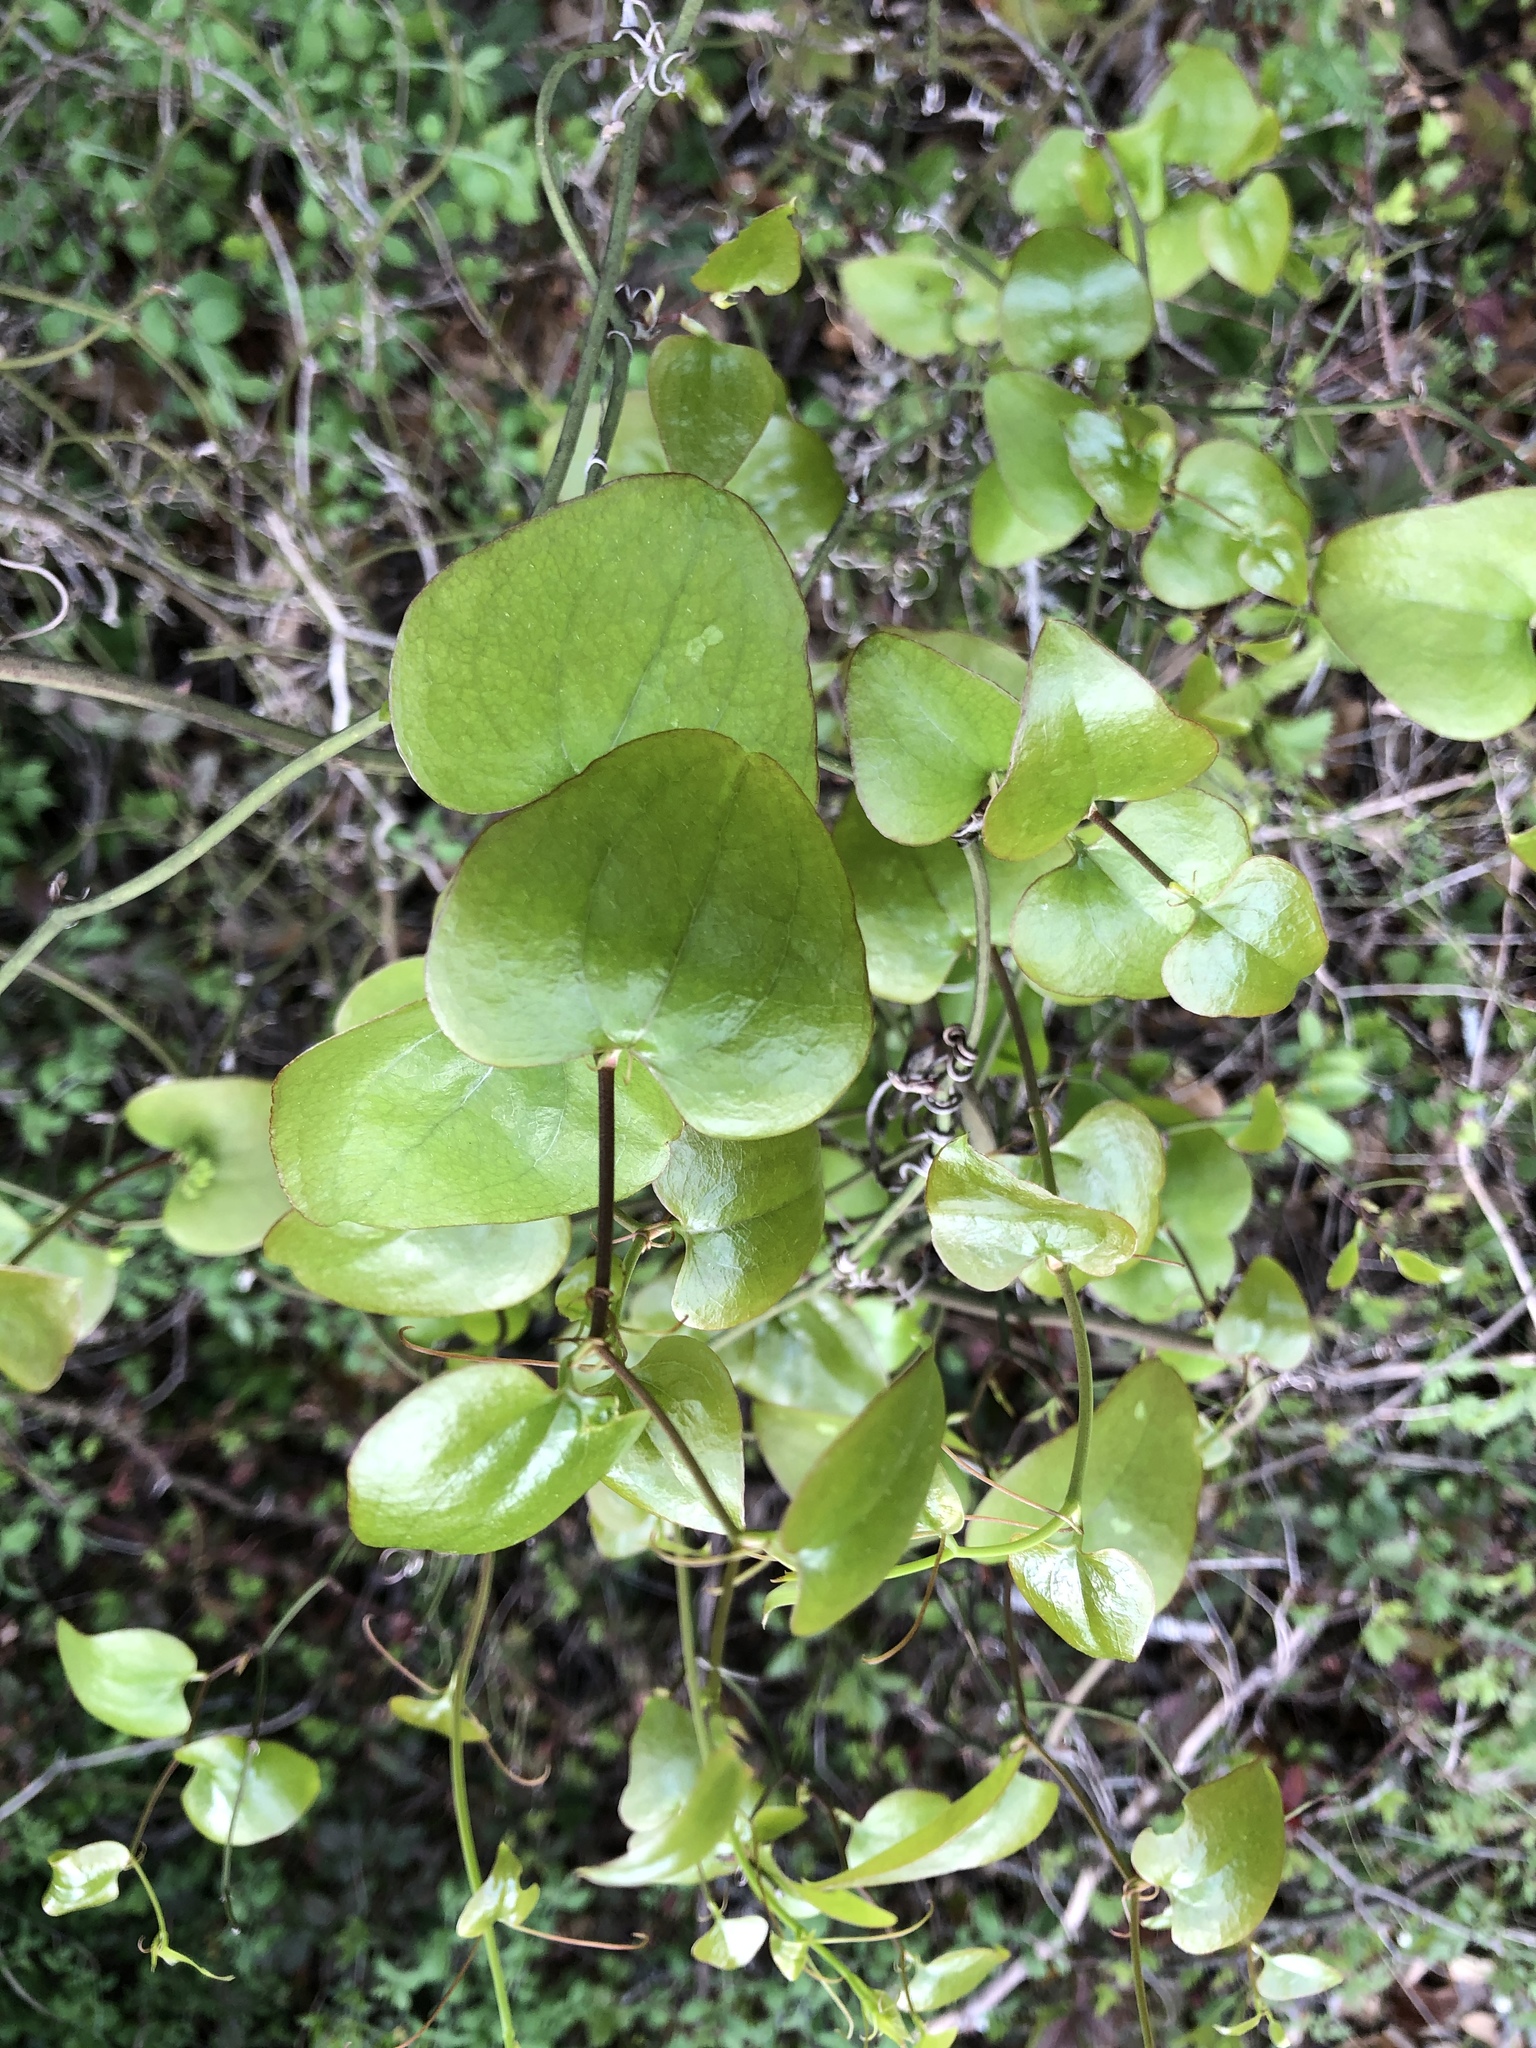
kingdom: Plantae
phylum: Tracheophyta
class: Liliopsida
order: Liliales
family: Smilacaceae
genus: Smilax
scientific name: Smilax bona-nox
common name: Catbrier
